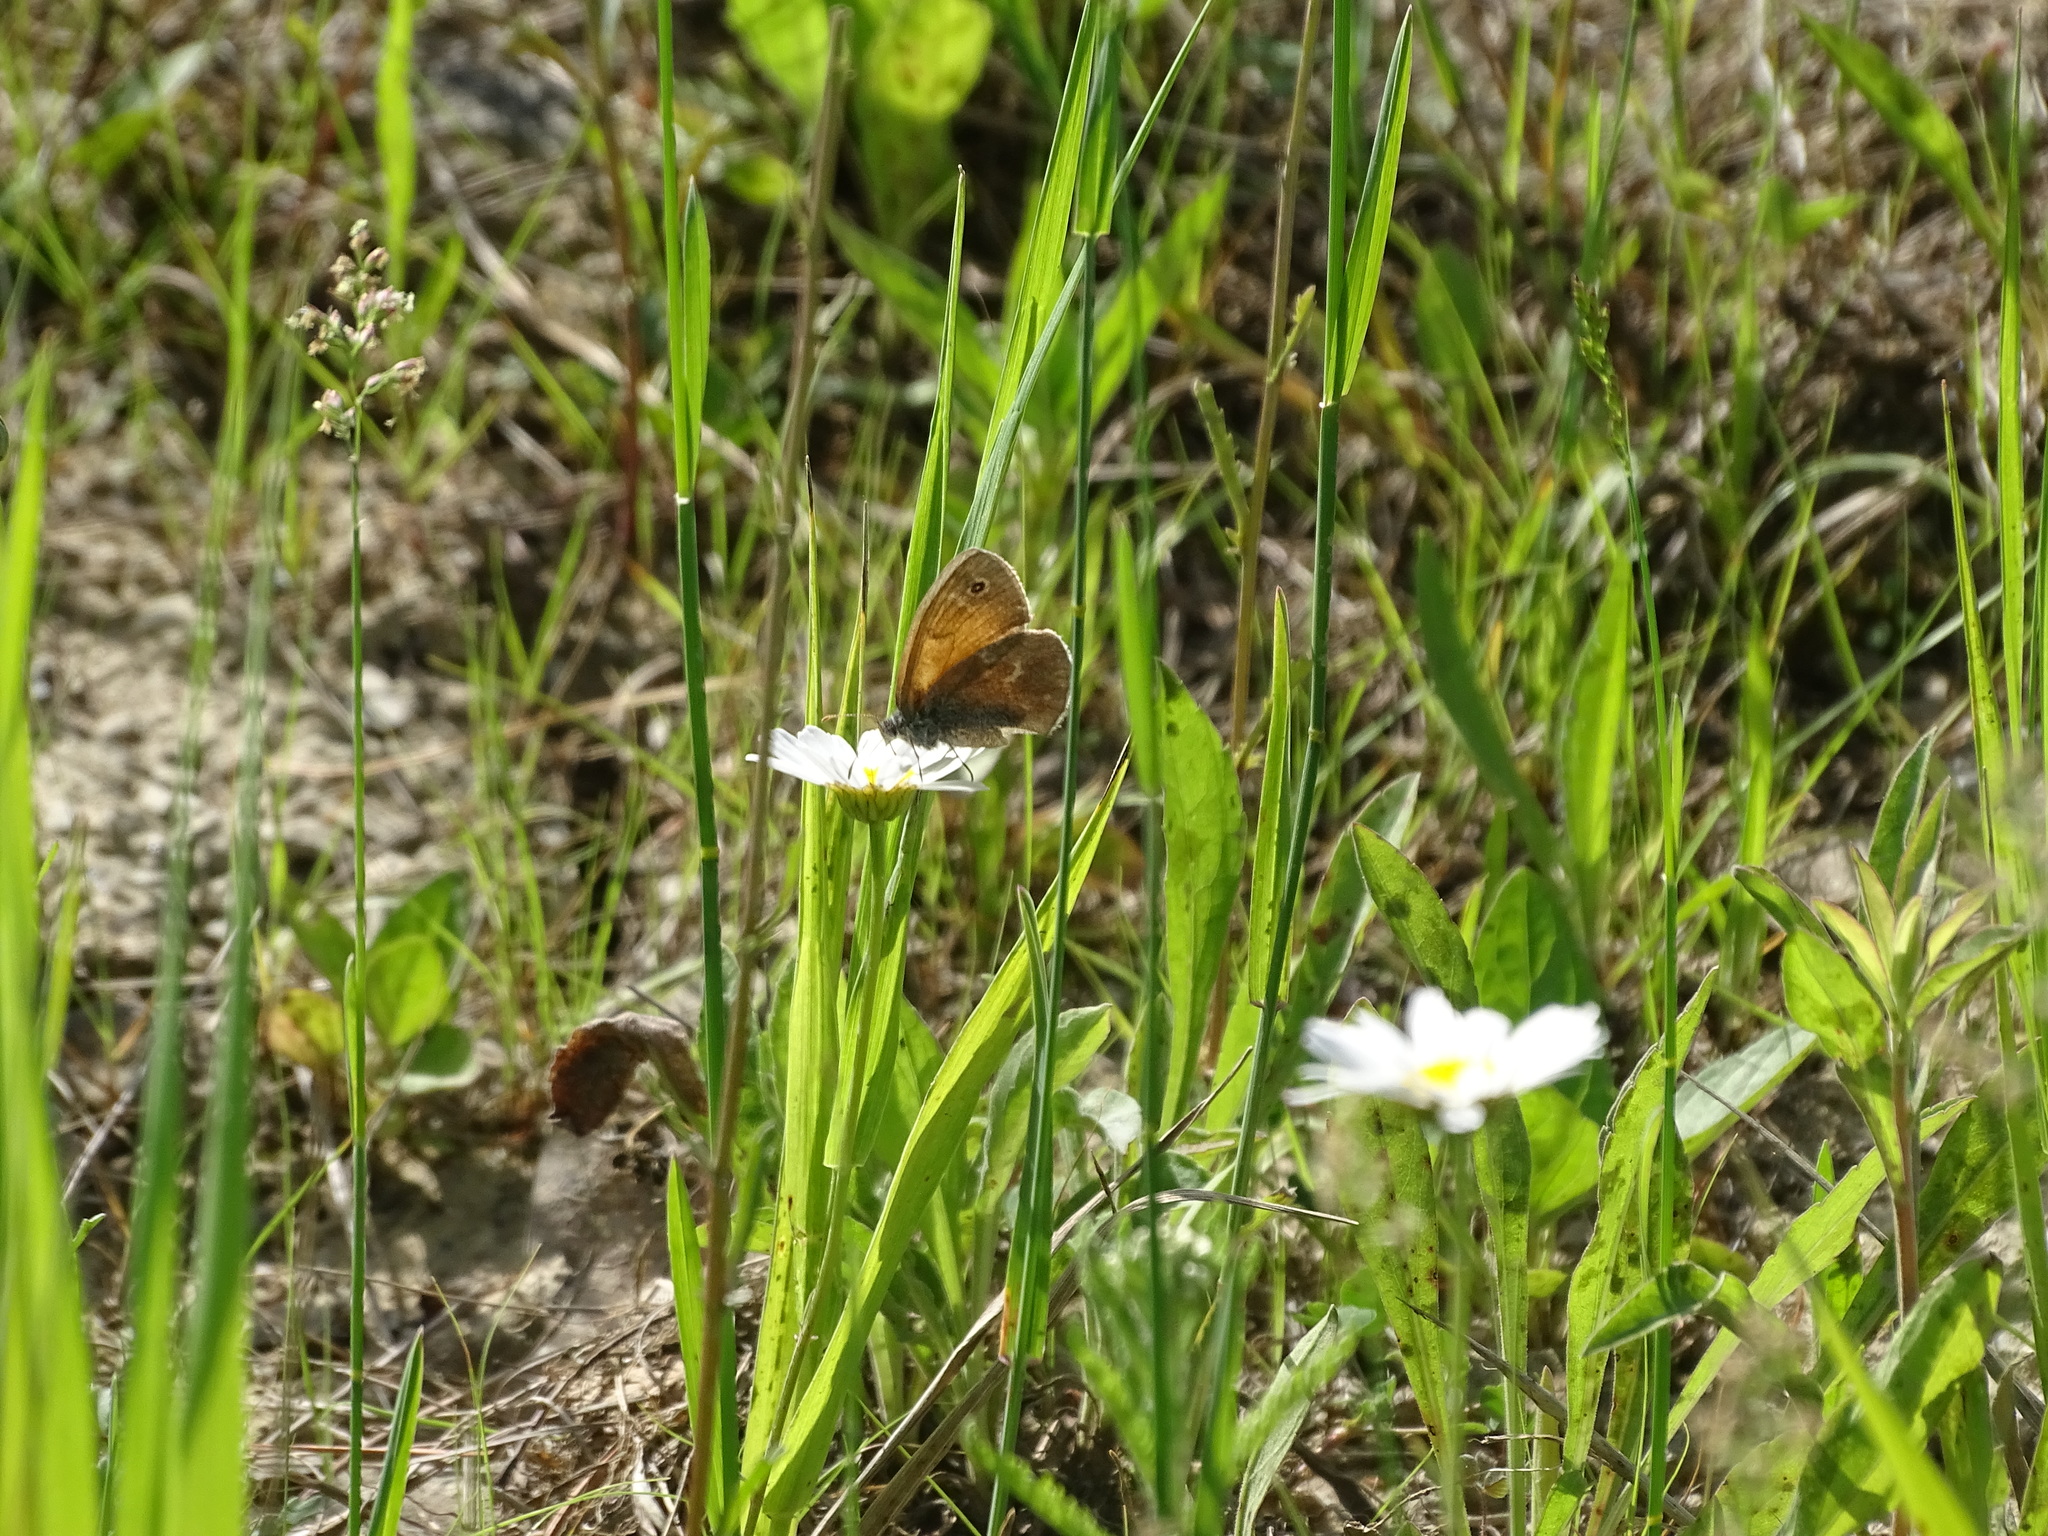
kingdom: Animalia
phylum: Arthropoda
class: Insecta
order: Lepidoptera
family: Nymphalidae
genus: Coenonympha
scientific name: Coenonympha california
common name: Common ringlet
